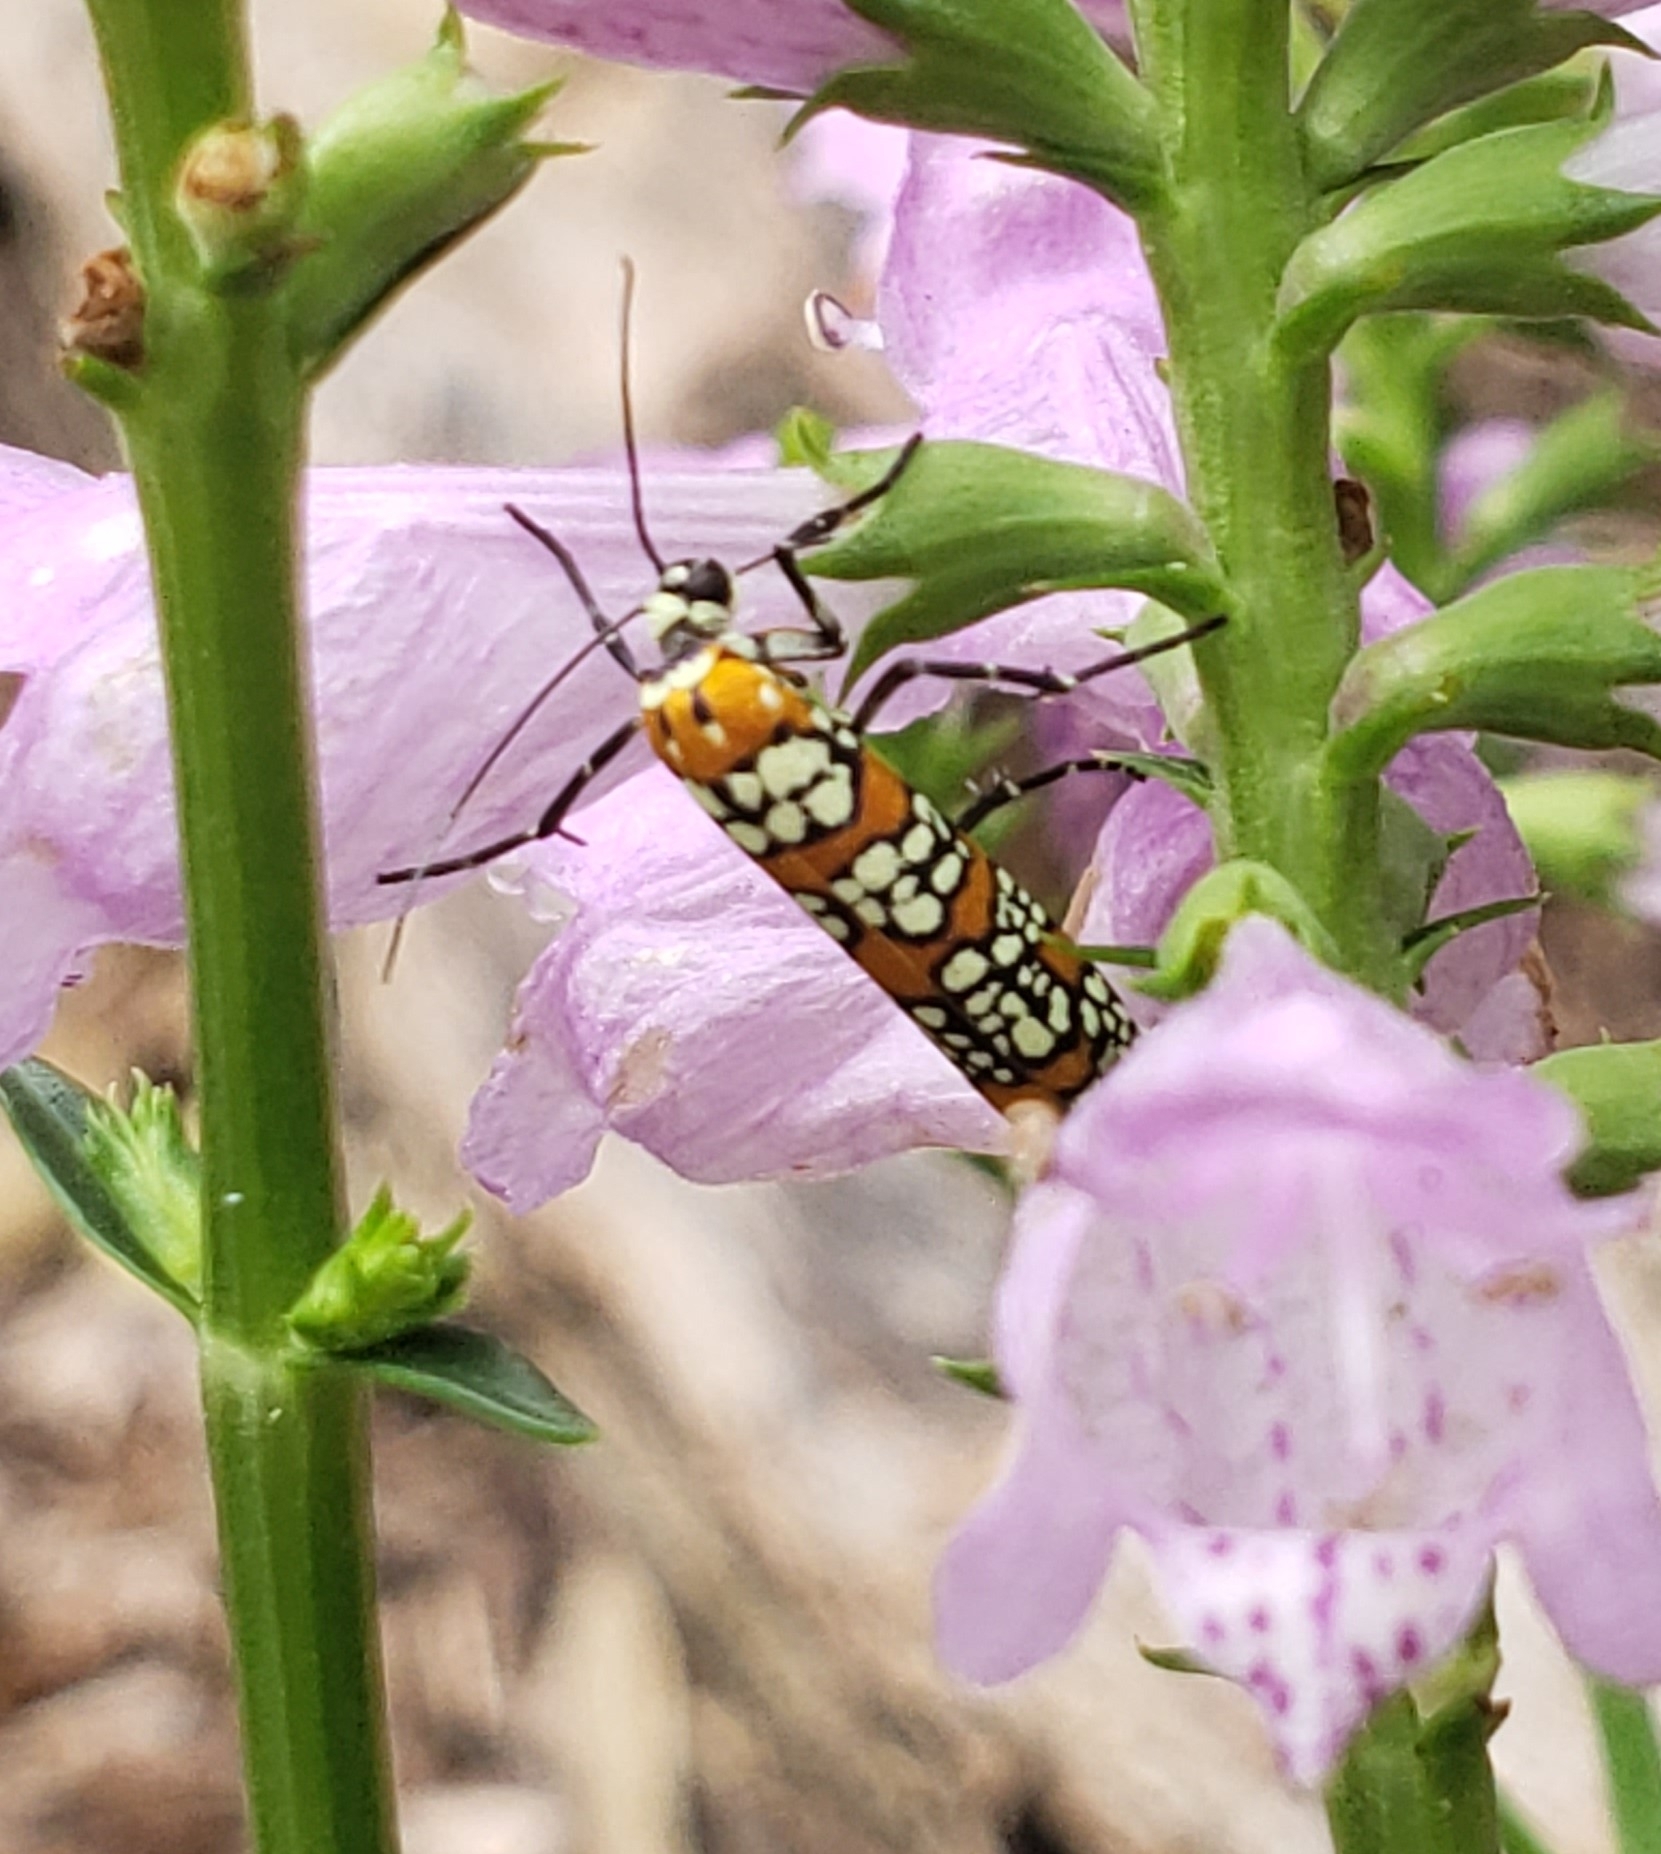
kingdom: Animalia
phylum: Arthropoda
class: Insecta
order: Lepidoptera
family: Attevidae
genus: Atteva
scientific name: Atteva punctella
